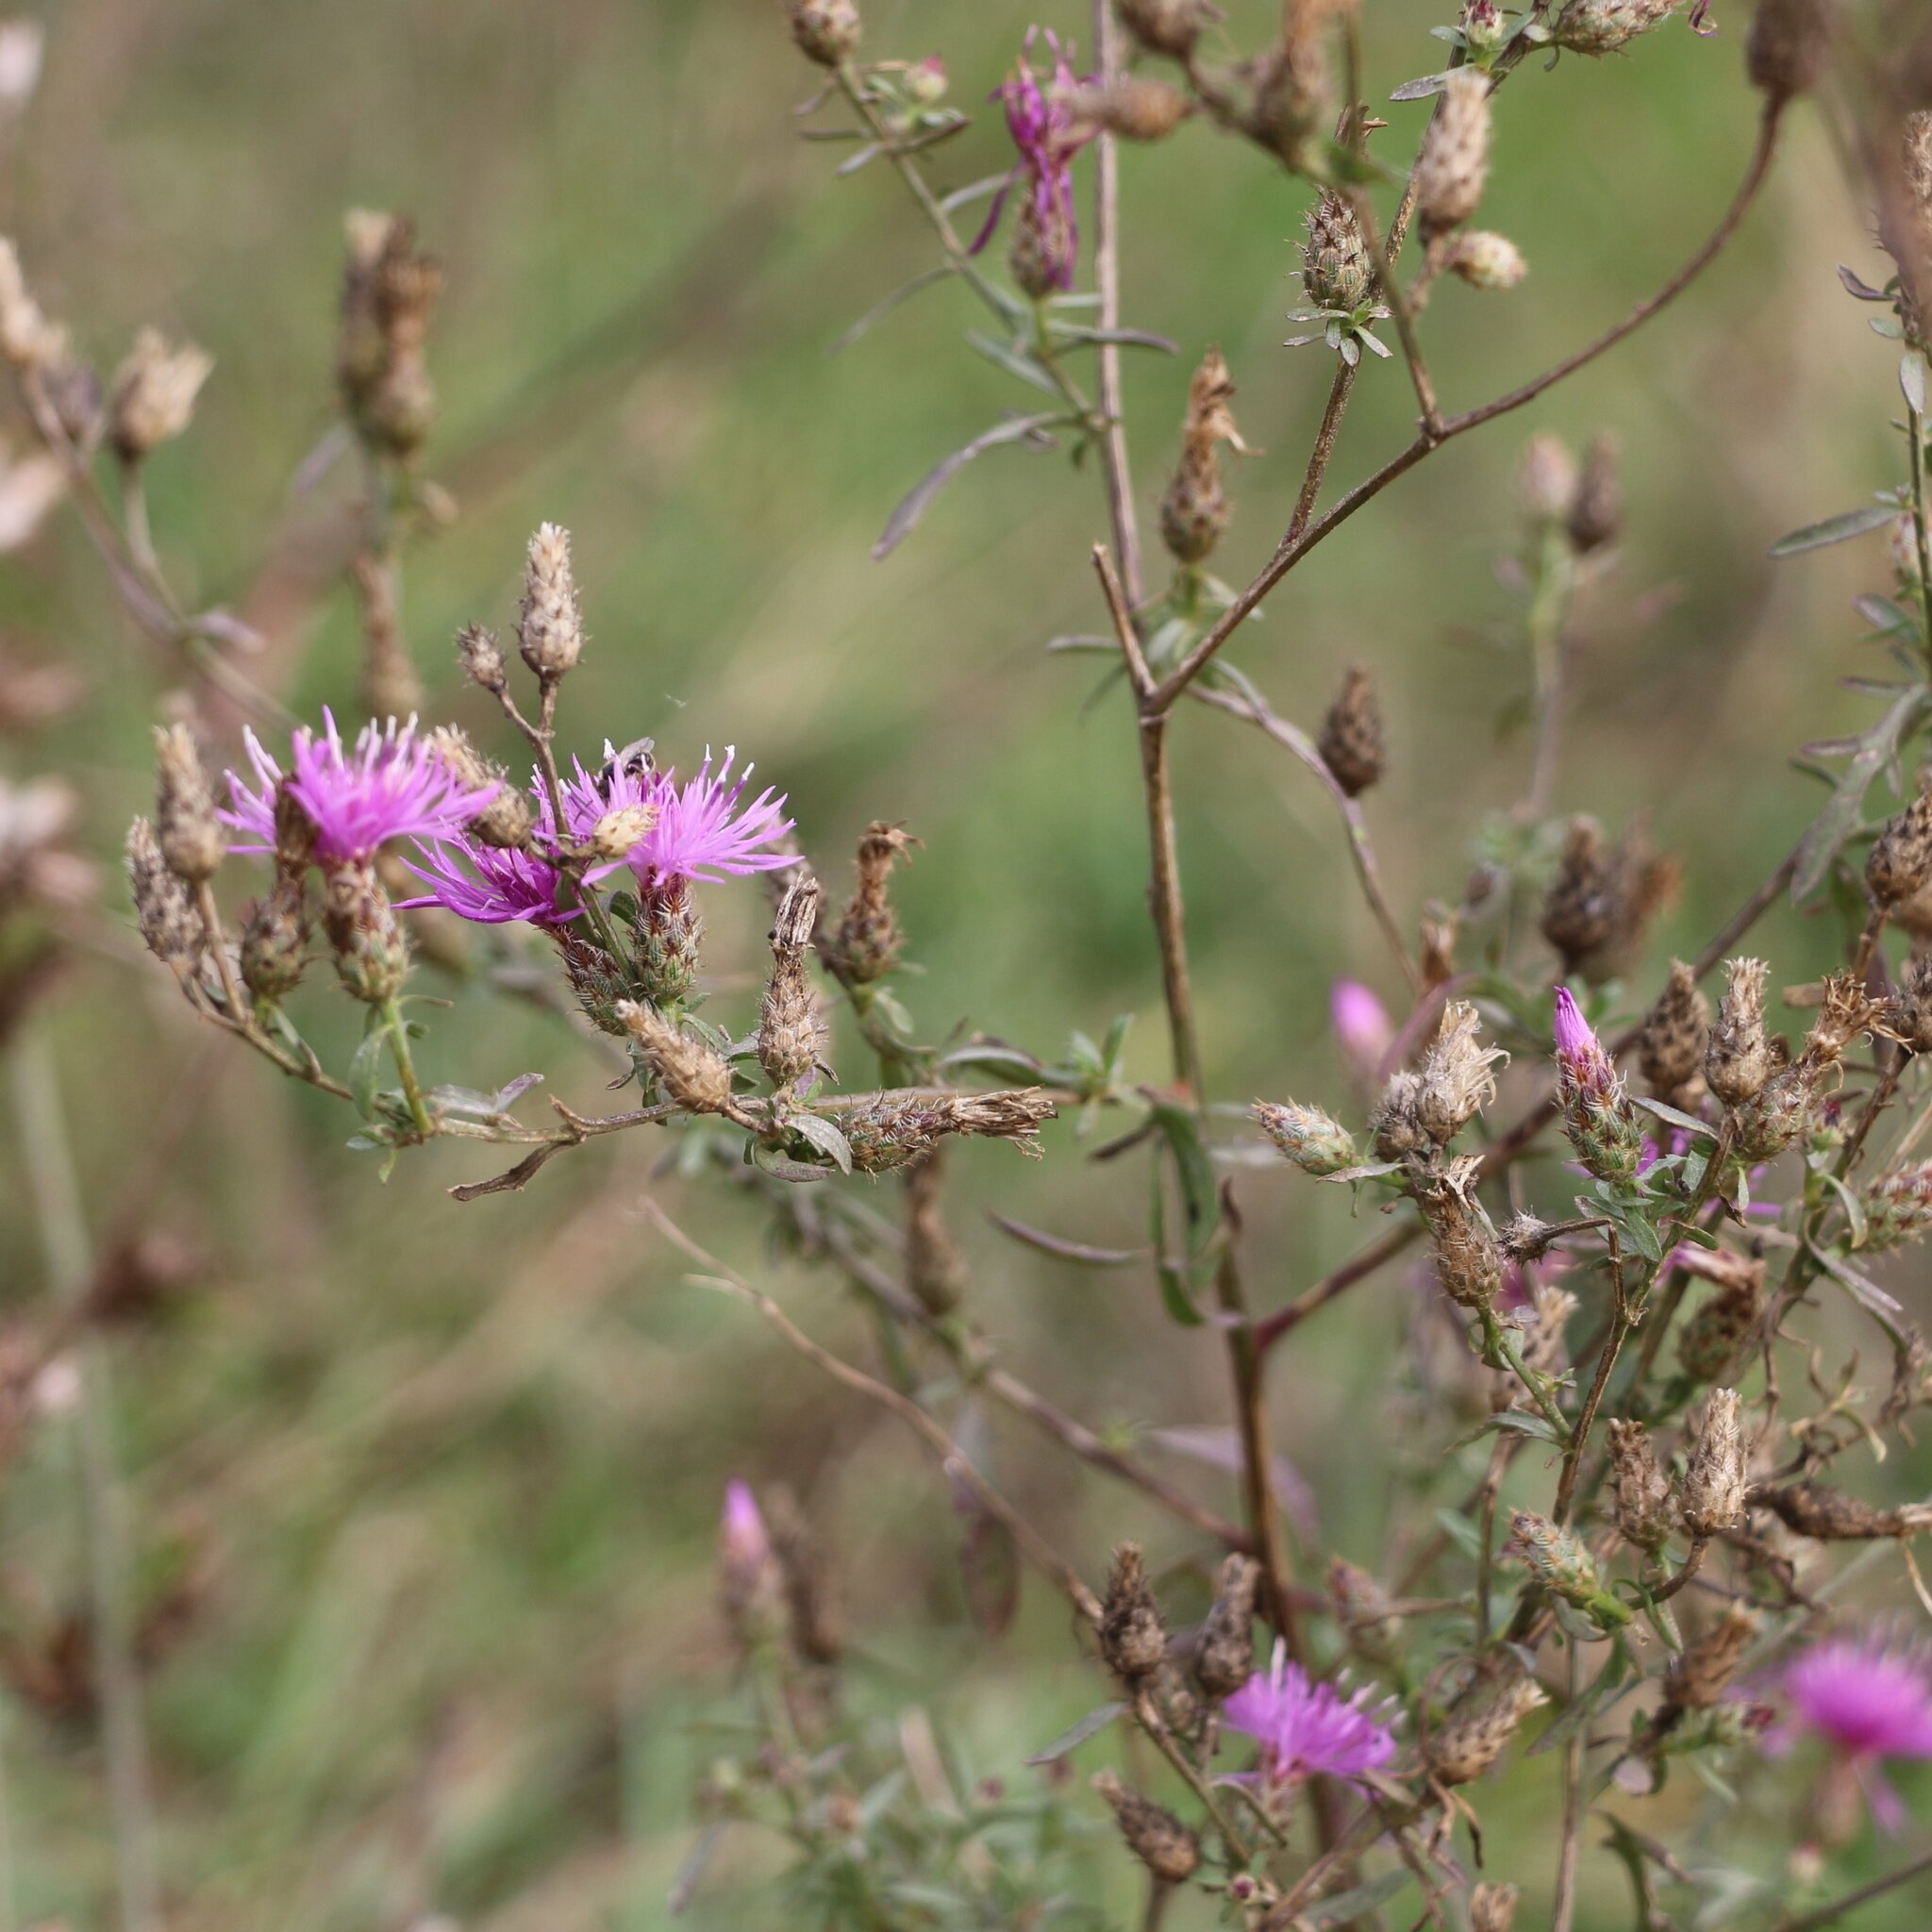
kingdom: Plantae
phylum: Tracheophyta
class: Magnoliopsida
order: Asterales
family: Asteraceae
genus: Centaurea
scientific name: Centaurea diffusa
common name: Diffuse knapweed
